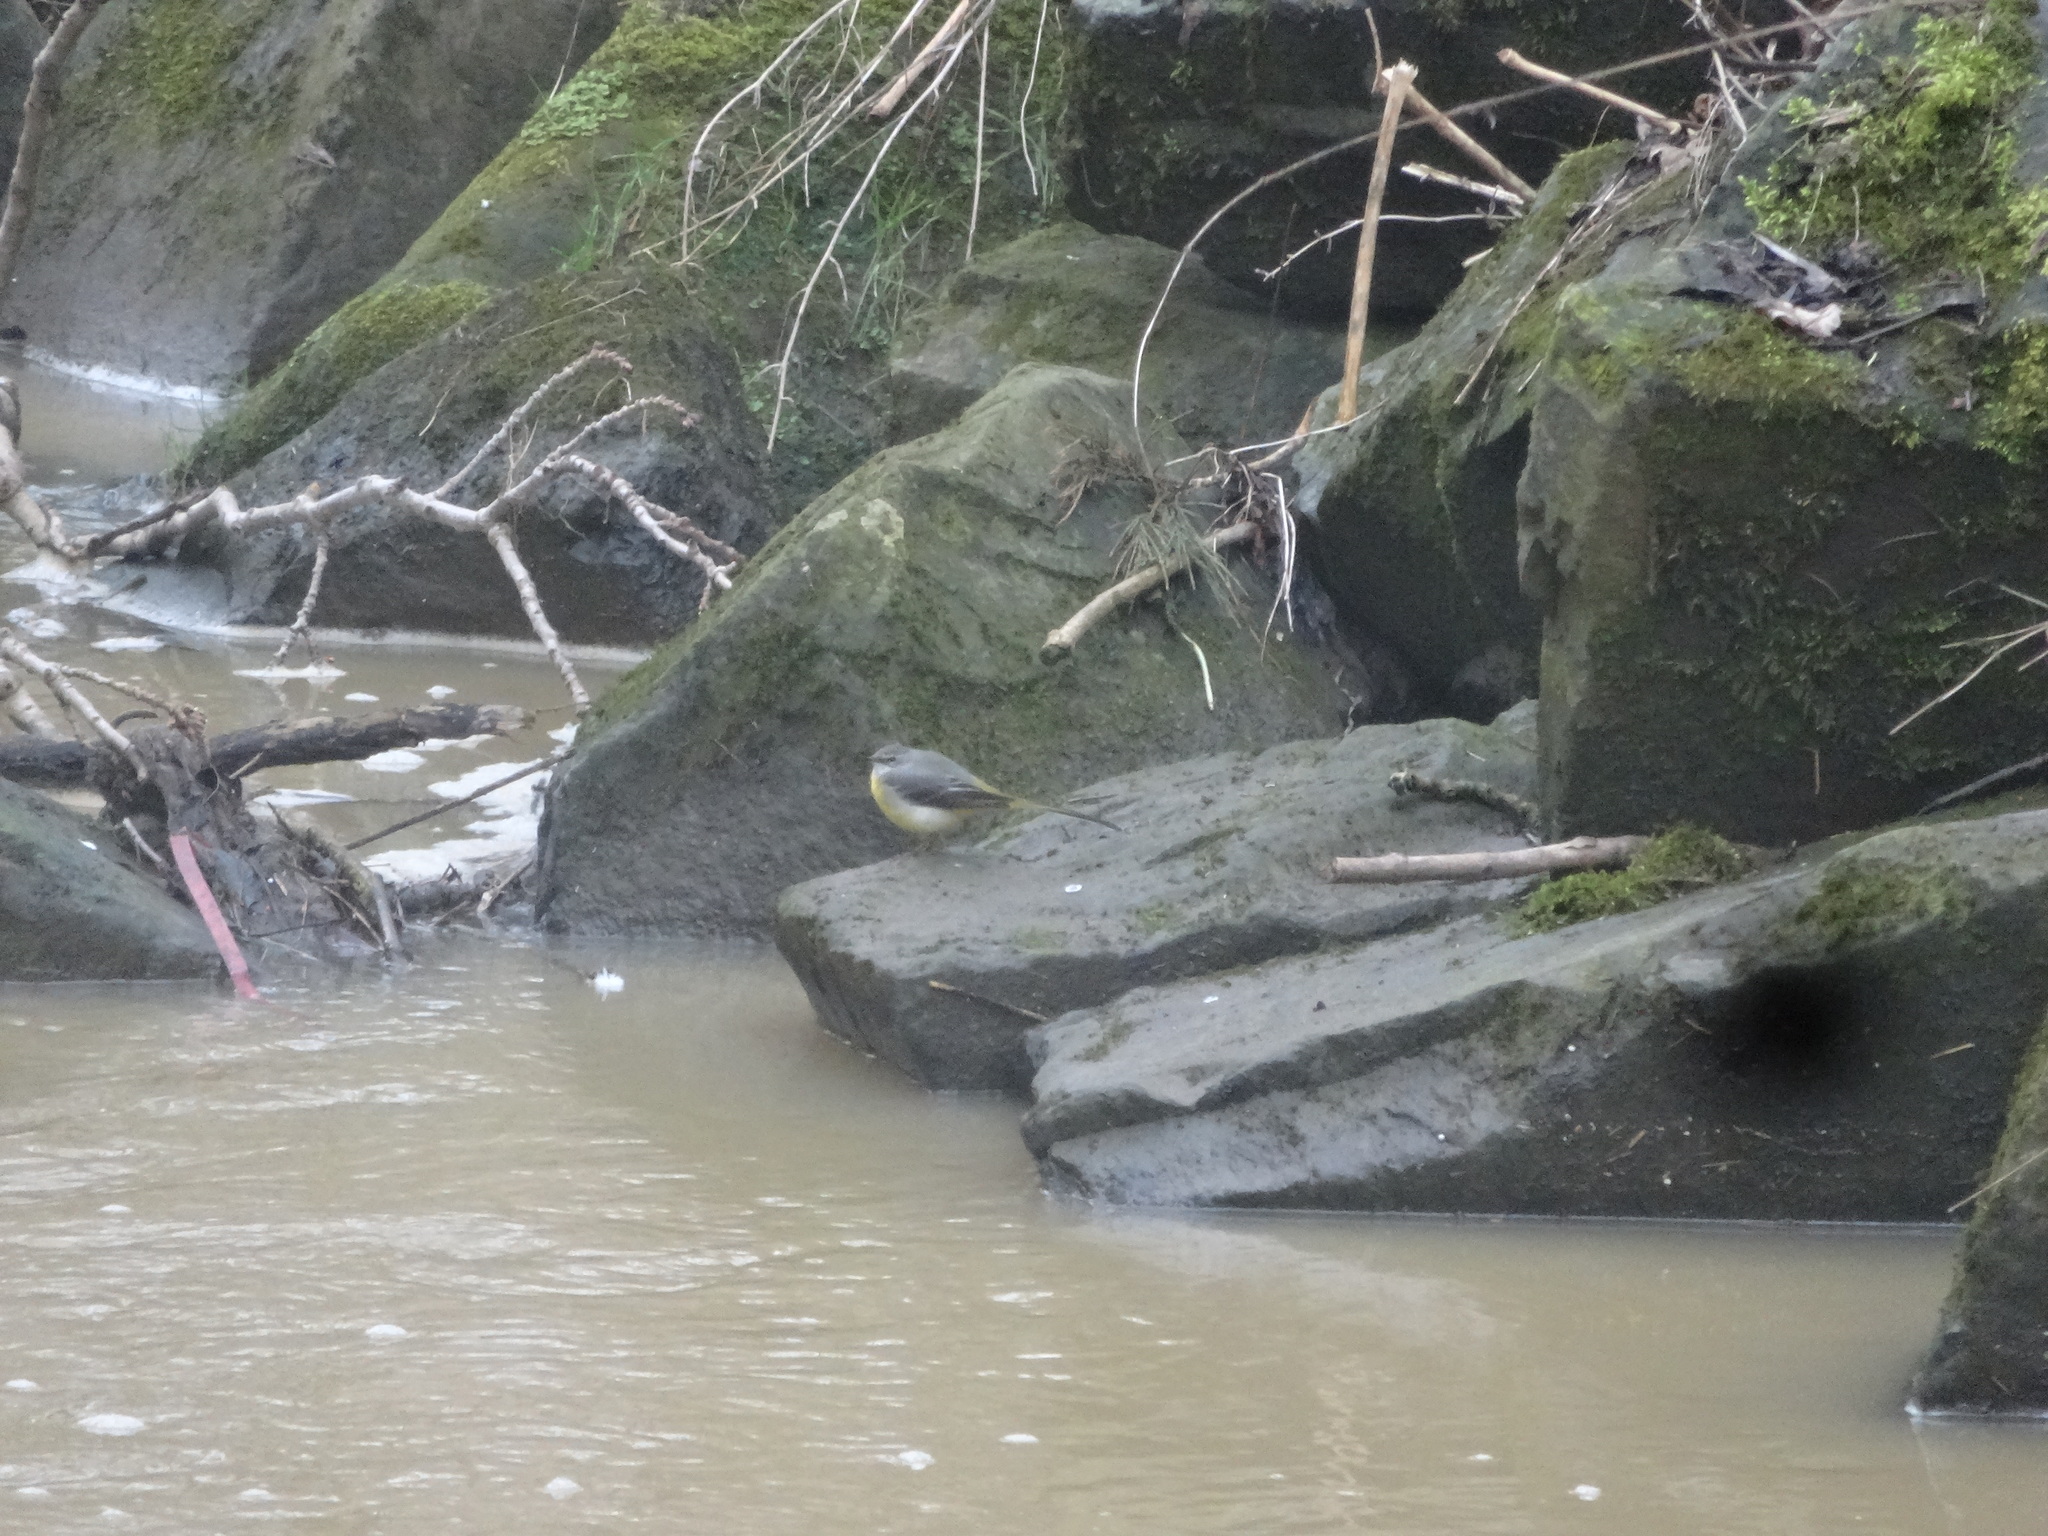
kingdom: Animalia
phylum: Chordata
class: Aves
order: Passeriformes
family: Motacillidae
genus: Motacilla
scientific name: Motacilla cinerea
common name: Grey wagtail
